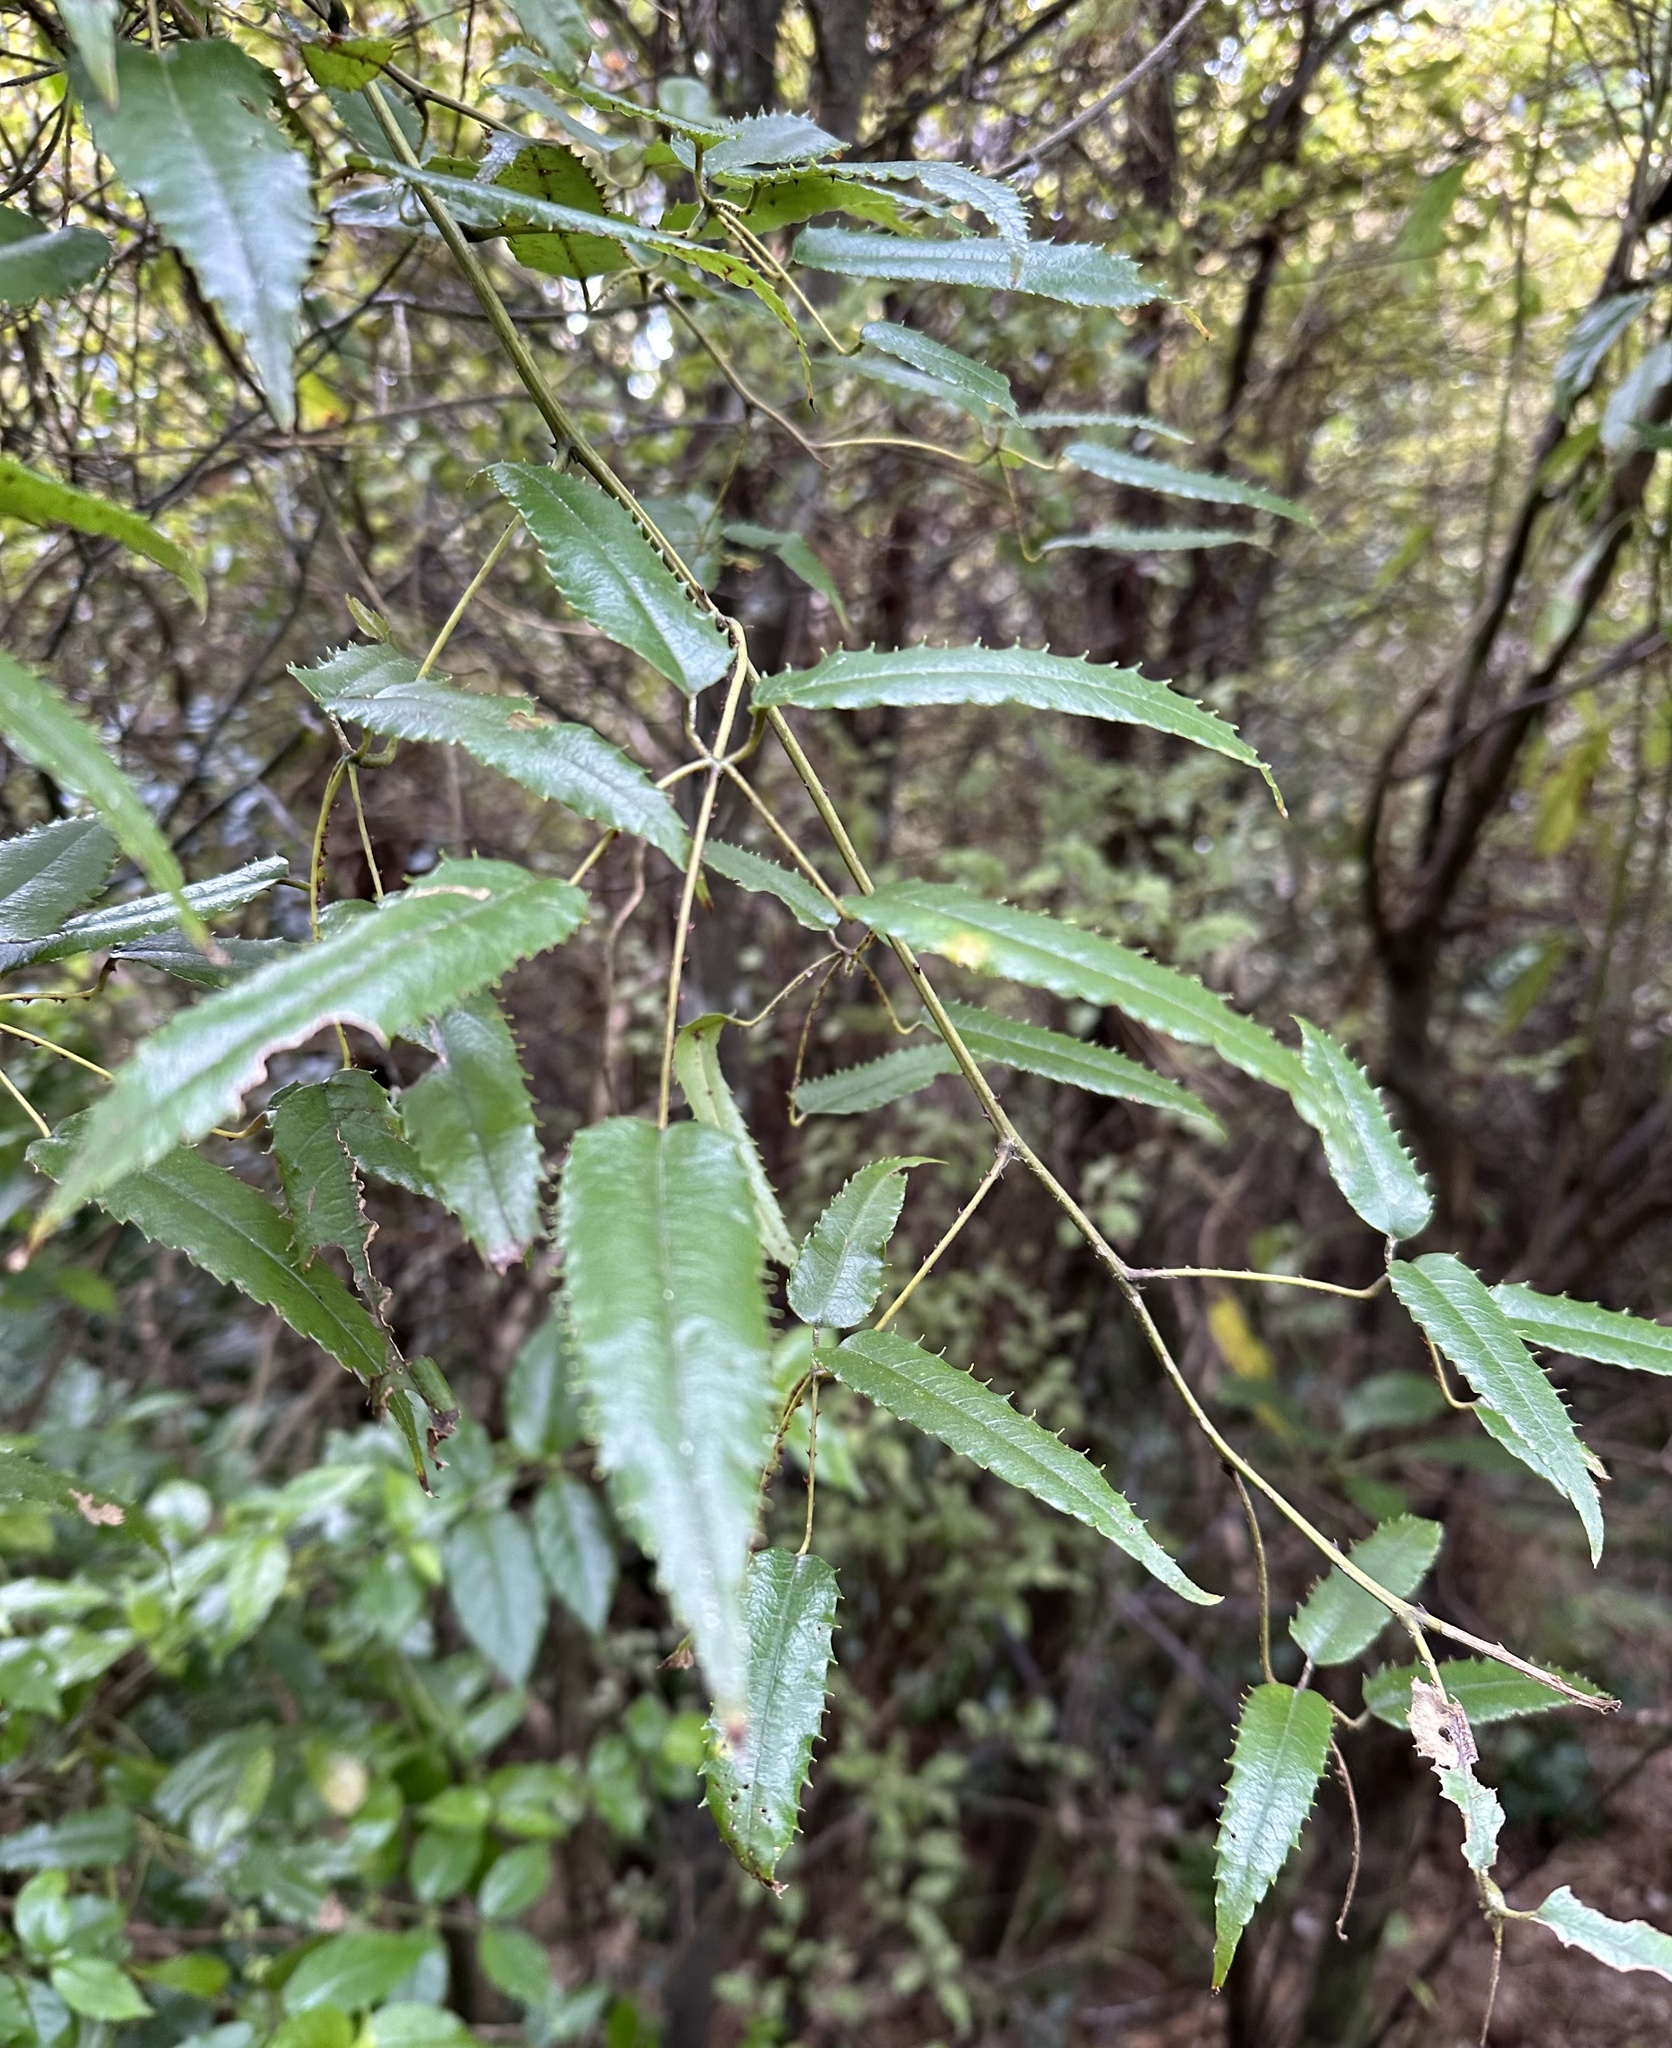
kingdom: Plantae
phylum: Tracheophyta
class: Magnoliopsida
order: Rosales
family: Rosaceae
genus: Rubus
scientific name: Rubus cissoides
